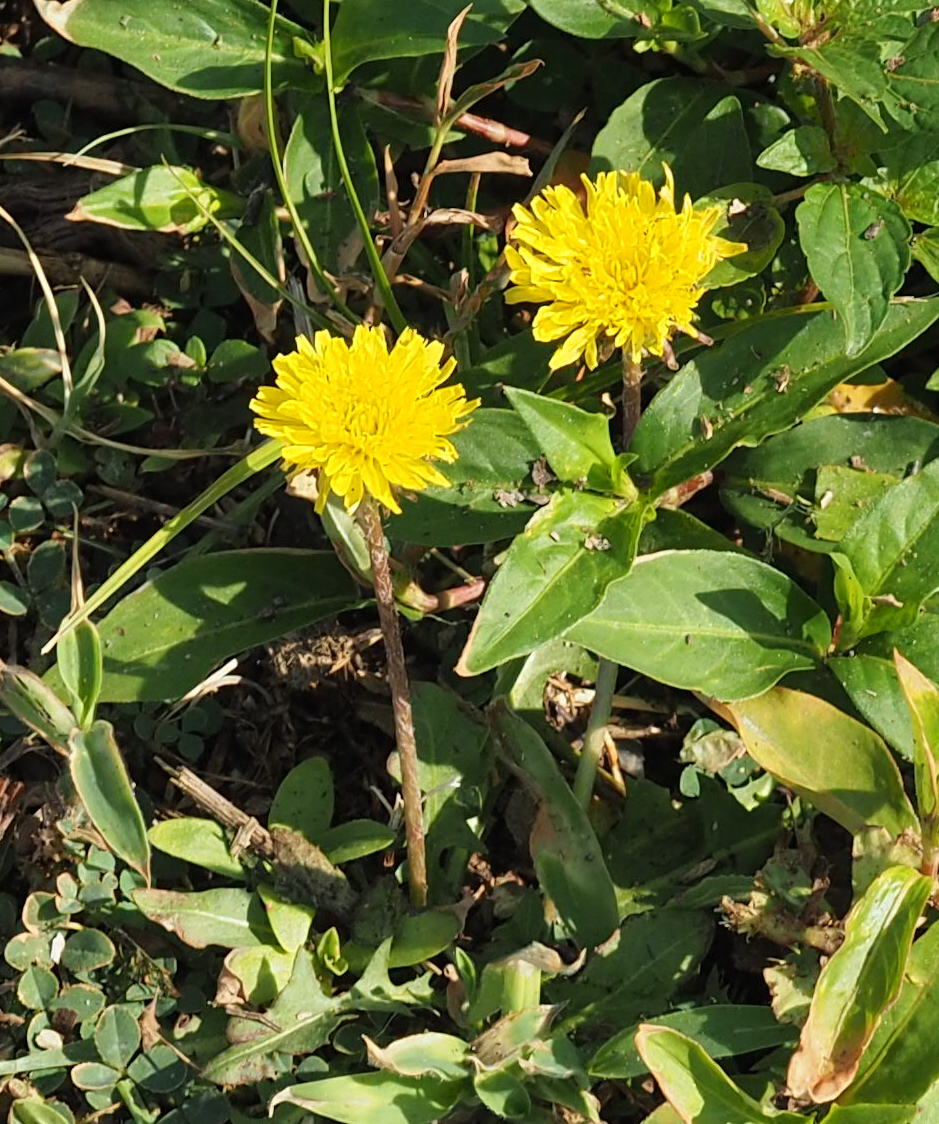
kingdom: Plantae
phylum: Tracheophyta
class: Magnoliopsida
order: Asterales
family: Asteraceae
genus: Taraxacum
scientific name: Taraxacum officinale
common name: Common dandelion
